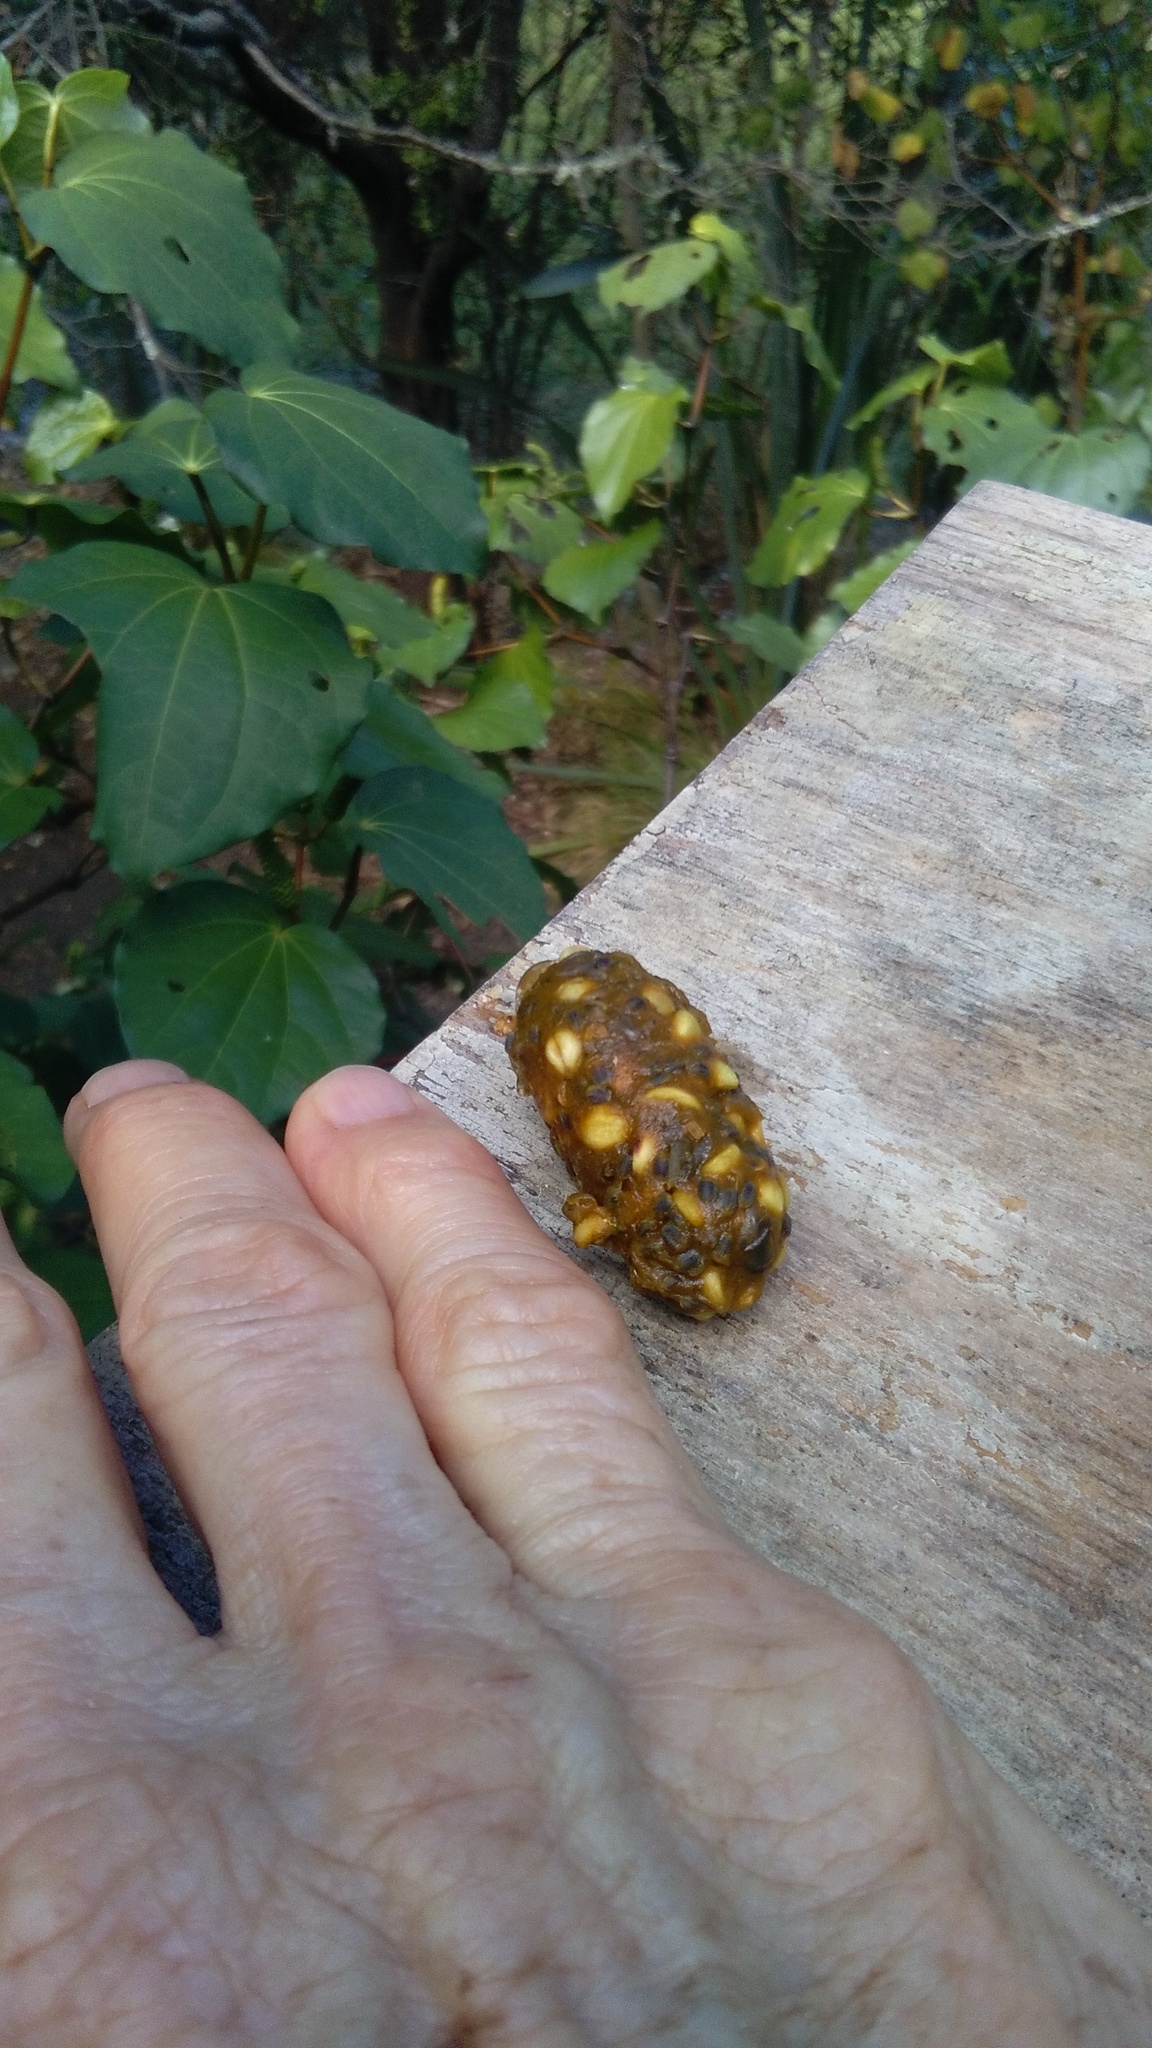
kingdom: Animalia
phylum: Chordata
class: Aves
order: Columbiformes
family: Columbidae
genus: Hemiphaga
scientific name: Hemiphaga novaeseelandiae
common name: New zealand pigeon
